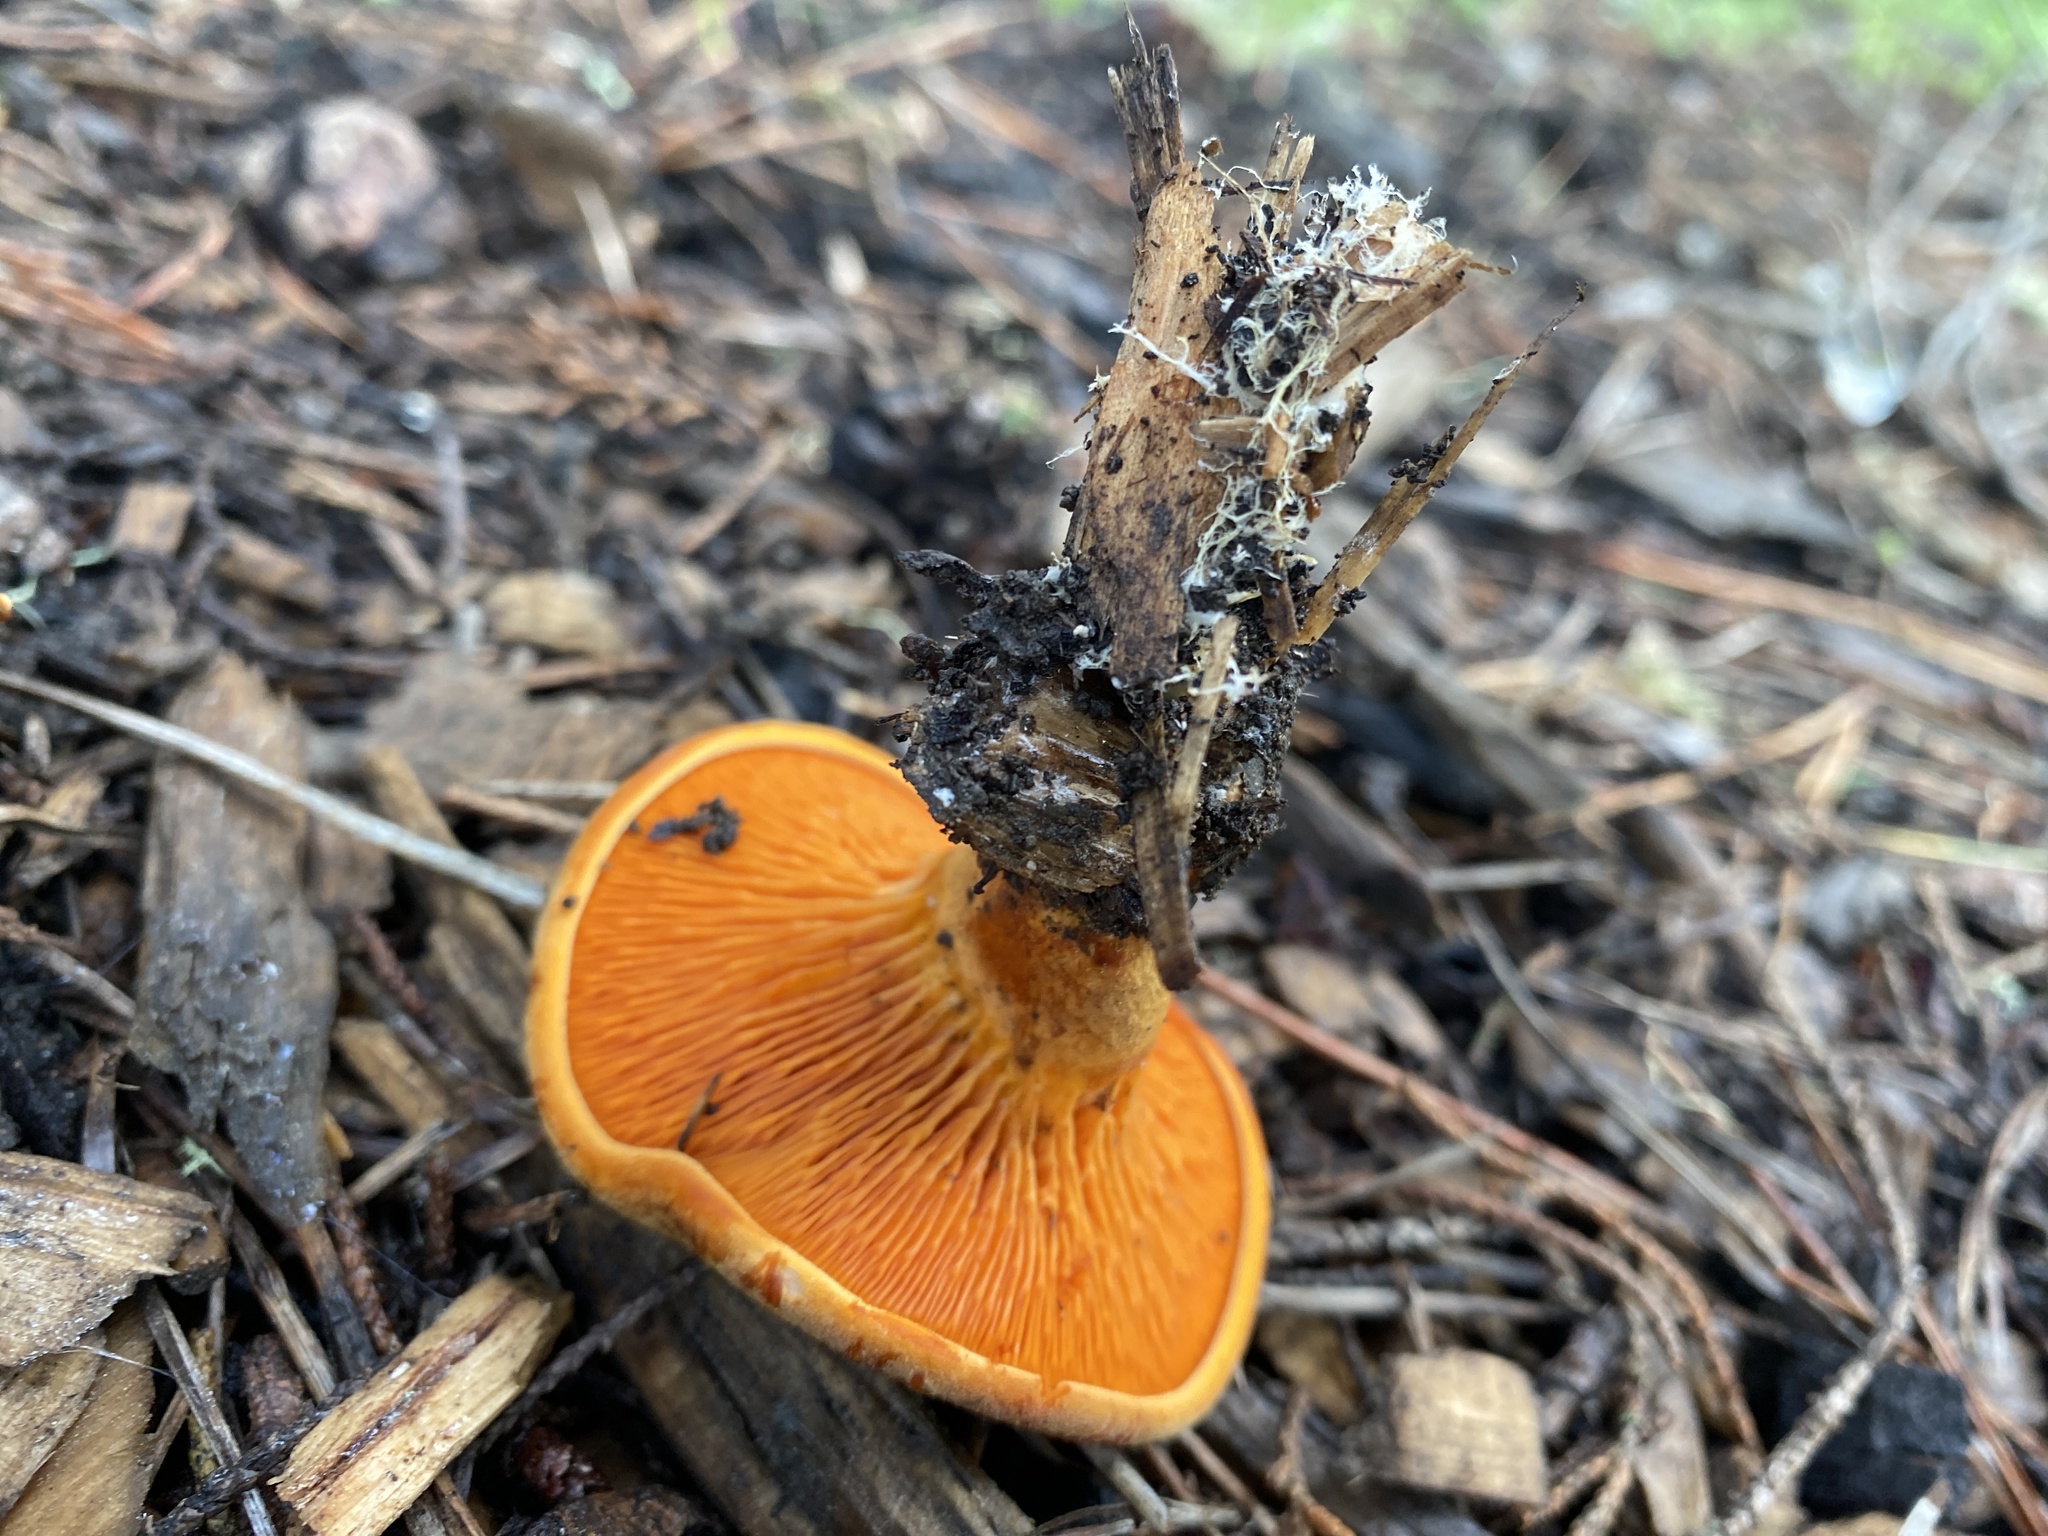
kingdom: Fungi
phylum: Basidiomycota
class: Agaricomycetes
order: Boletales
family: Hygrophoropsidaceae
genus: Hygrophoropsis
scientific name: Hygrophoropsis aurantiaca
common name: False chanterelle
